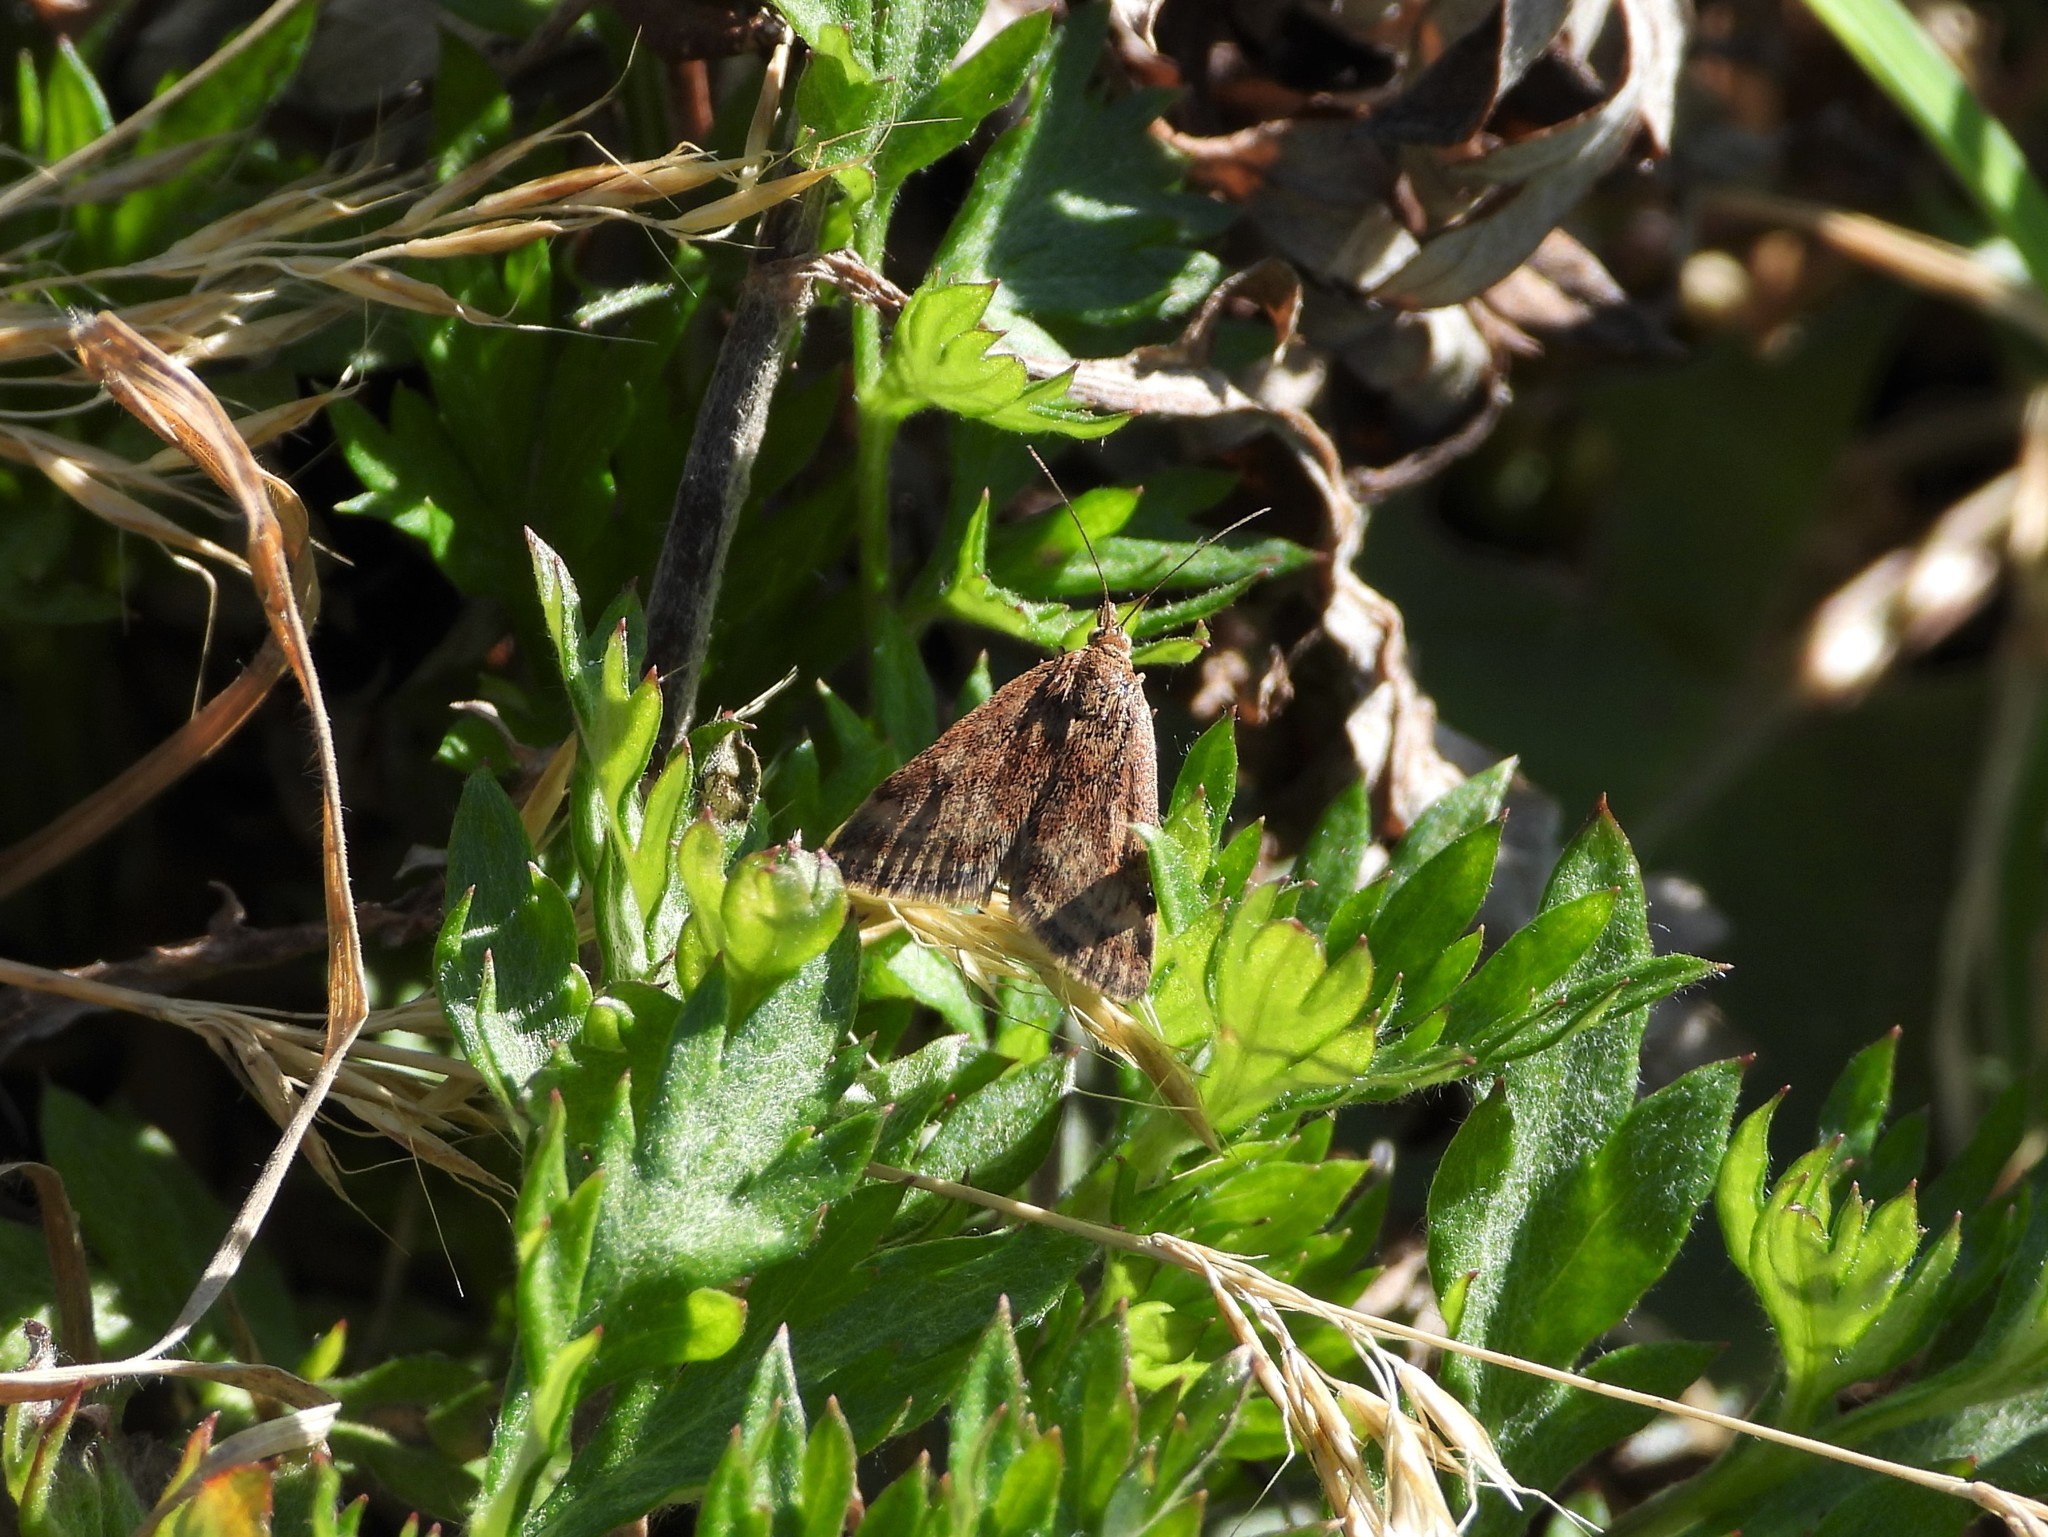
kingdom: Animalia
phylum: Arthropoda
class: Insecta
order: Lepidoptera
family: Crambidae
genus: Pyrausta
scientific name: Pyrausta despicata
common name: Straw-barred pearl
